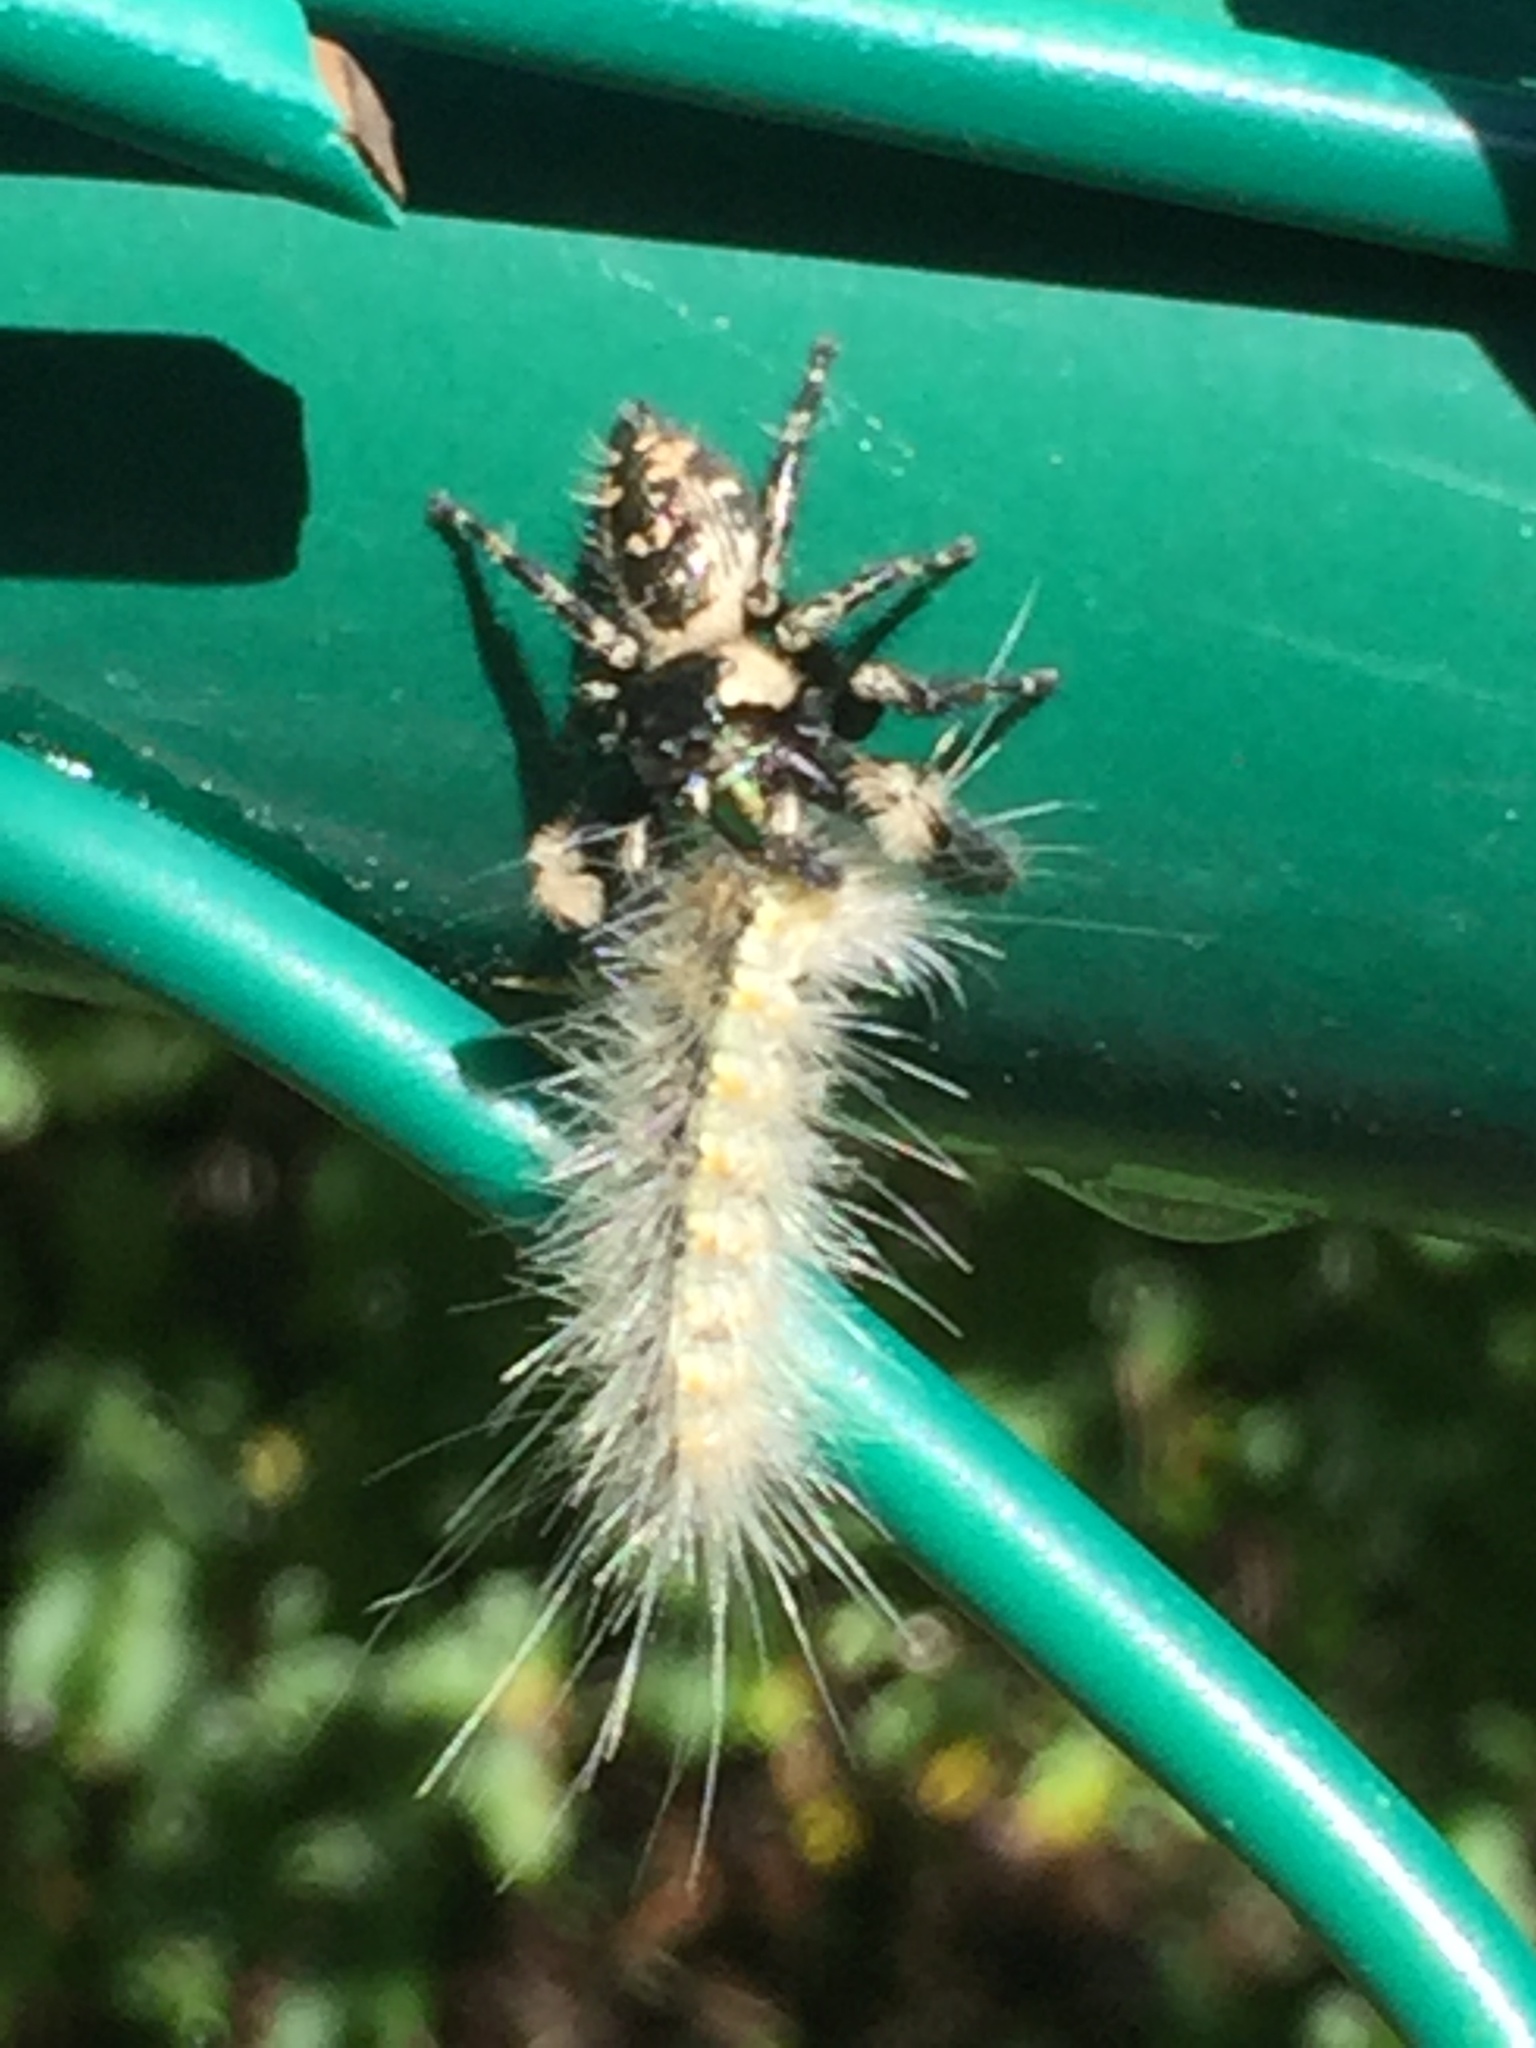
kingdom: Animalia
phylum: Arthropoda
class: Insecta
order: Lepidoptera
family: Erebidae
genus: Hyphantria
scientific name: Hyphantria cunea
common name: American white moth
